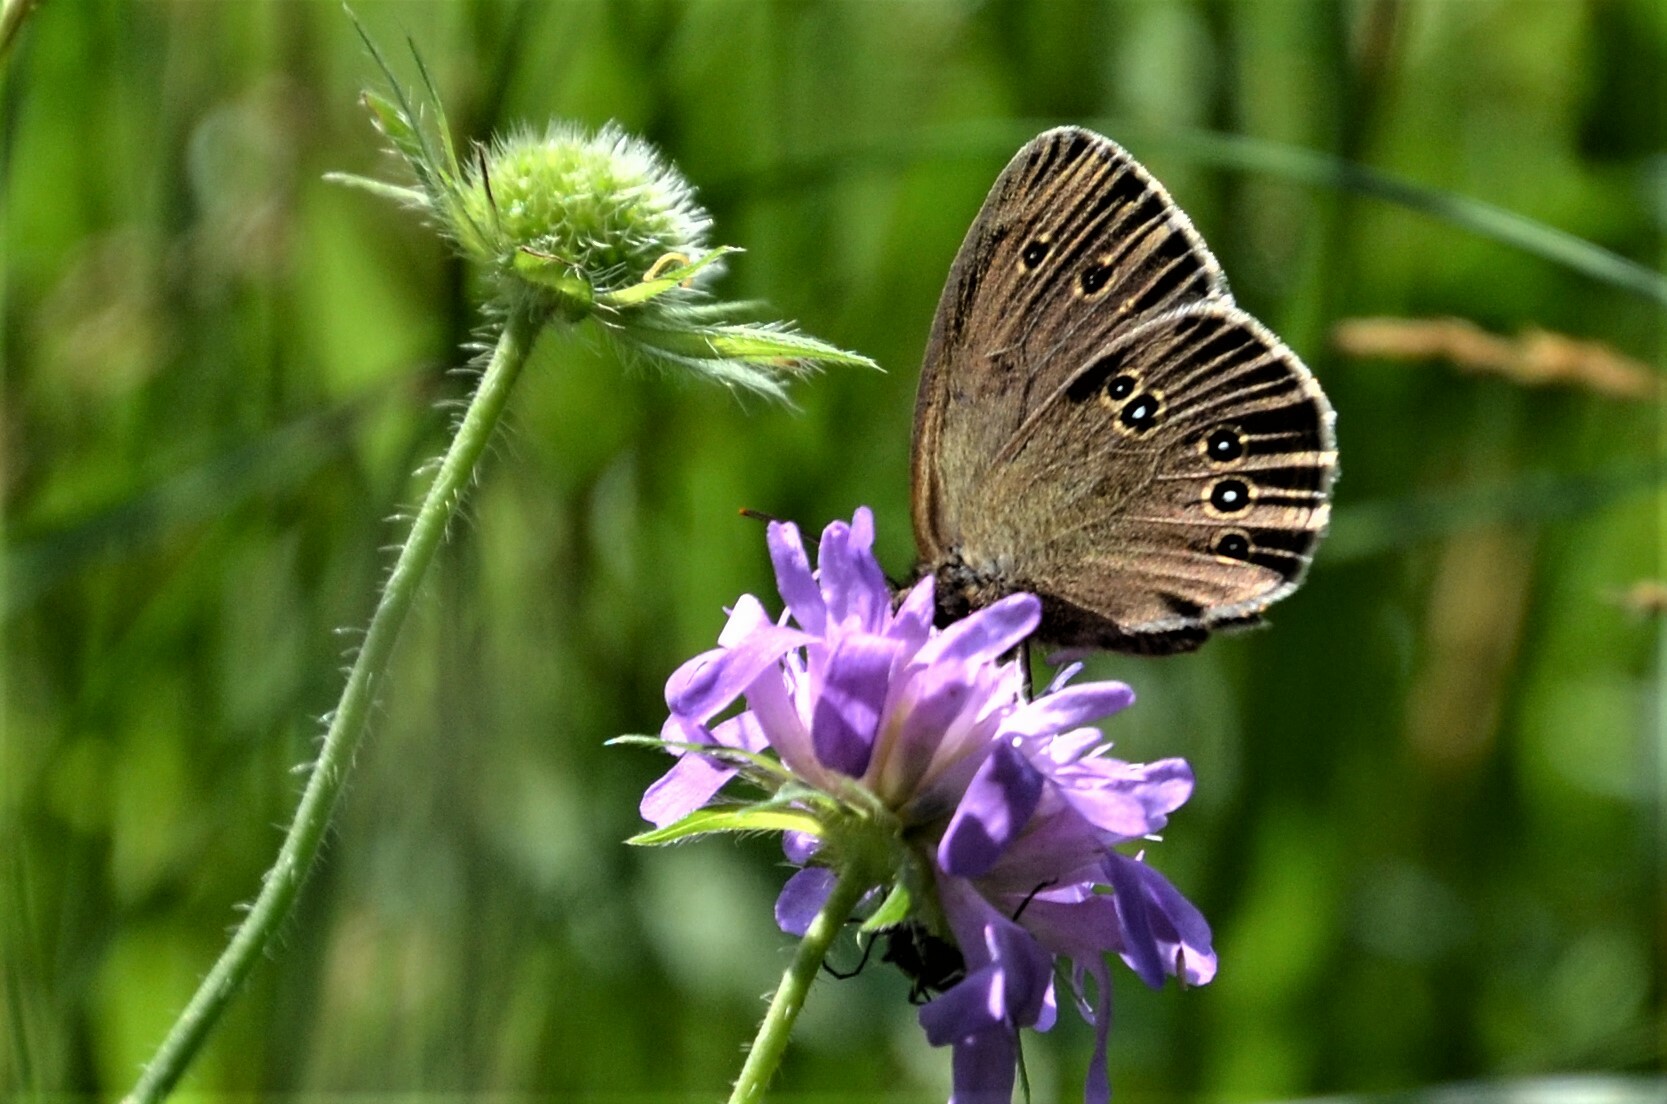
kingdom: Animalia
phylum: Arthropoda
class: Insecta
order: Lepidoptera
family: Nymphalidae
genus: Aphantopus
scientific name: Aphantopus hyperantus
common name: Ringlet
